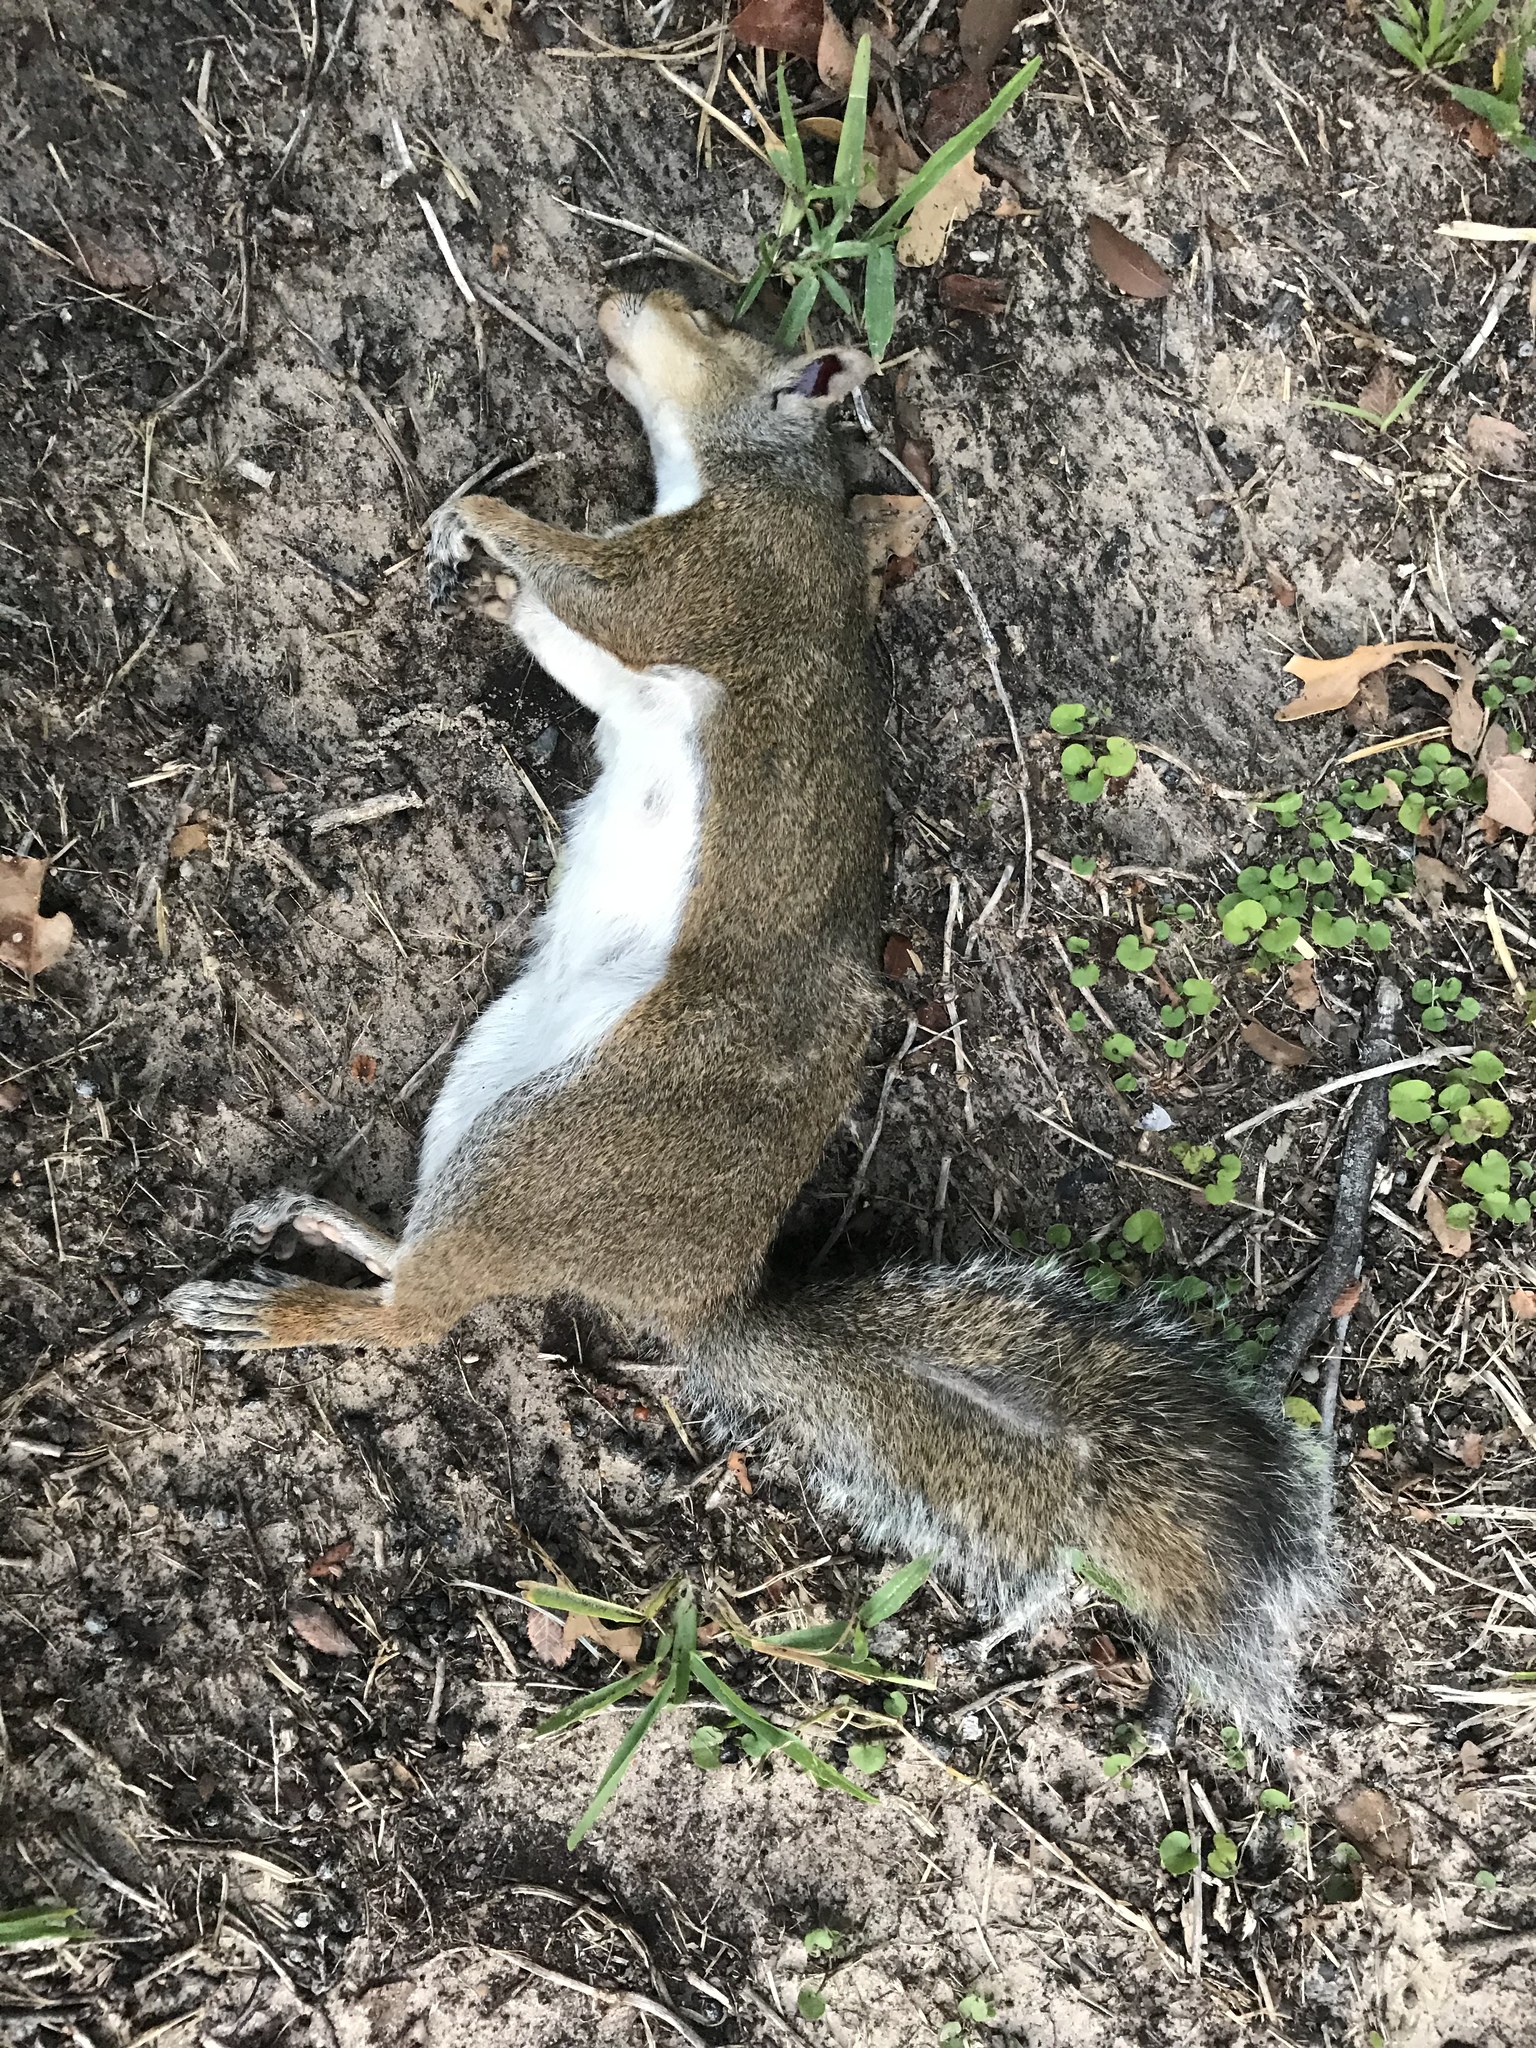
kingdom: Animalia
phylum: Chordata
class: Mammalia
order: Rodentia
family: Sciuridae
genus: Sciurus
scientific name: Sciurus carolinensis
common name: Eastern gray squirrel
